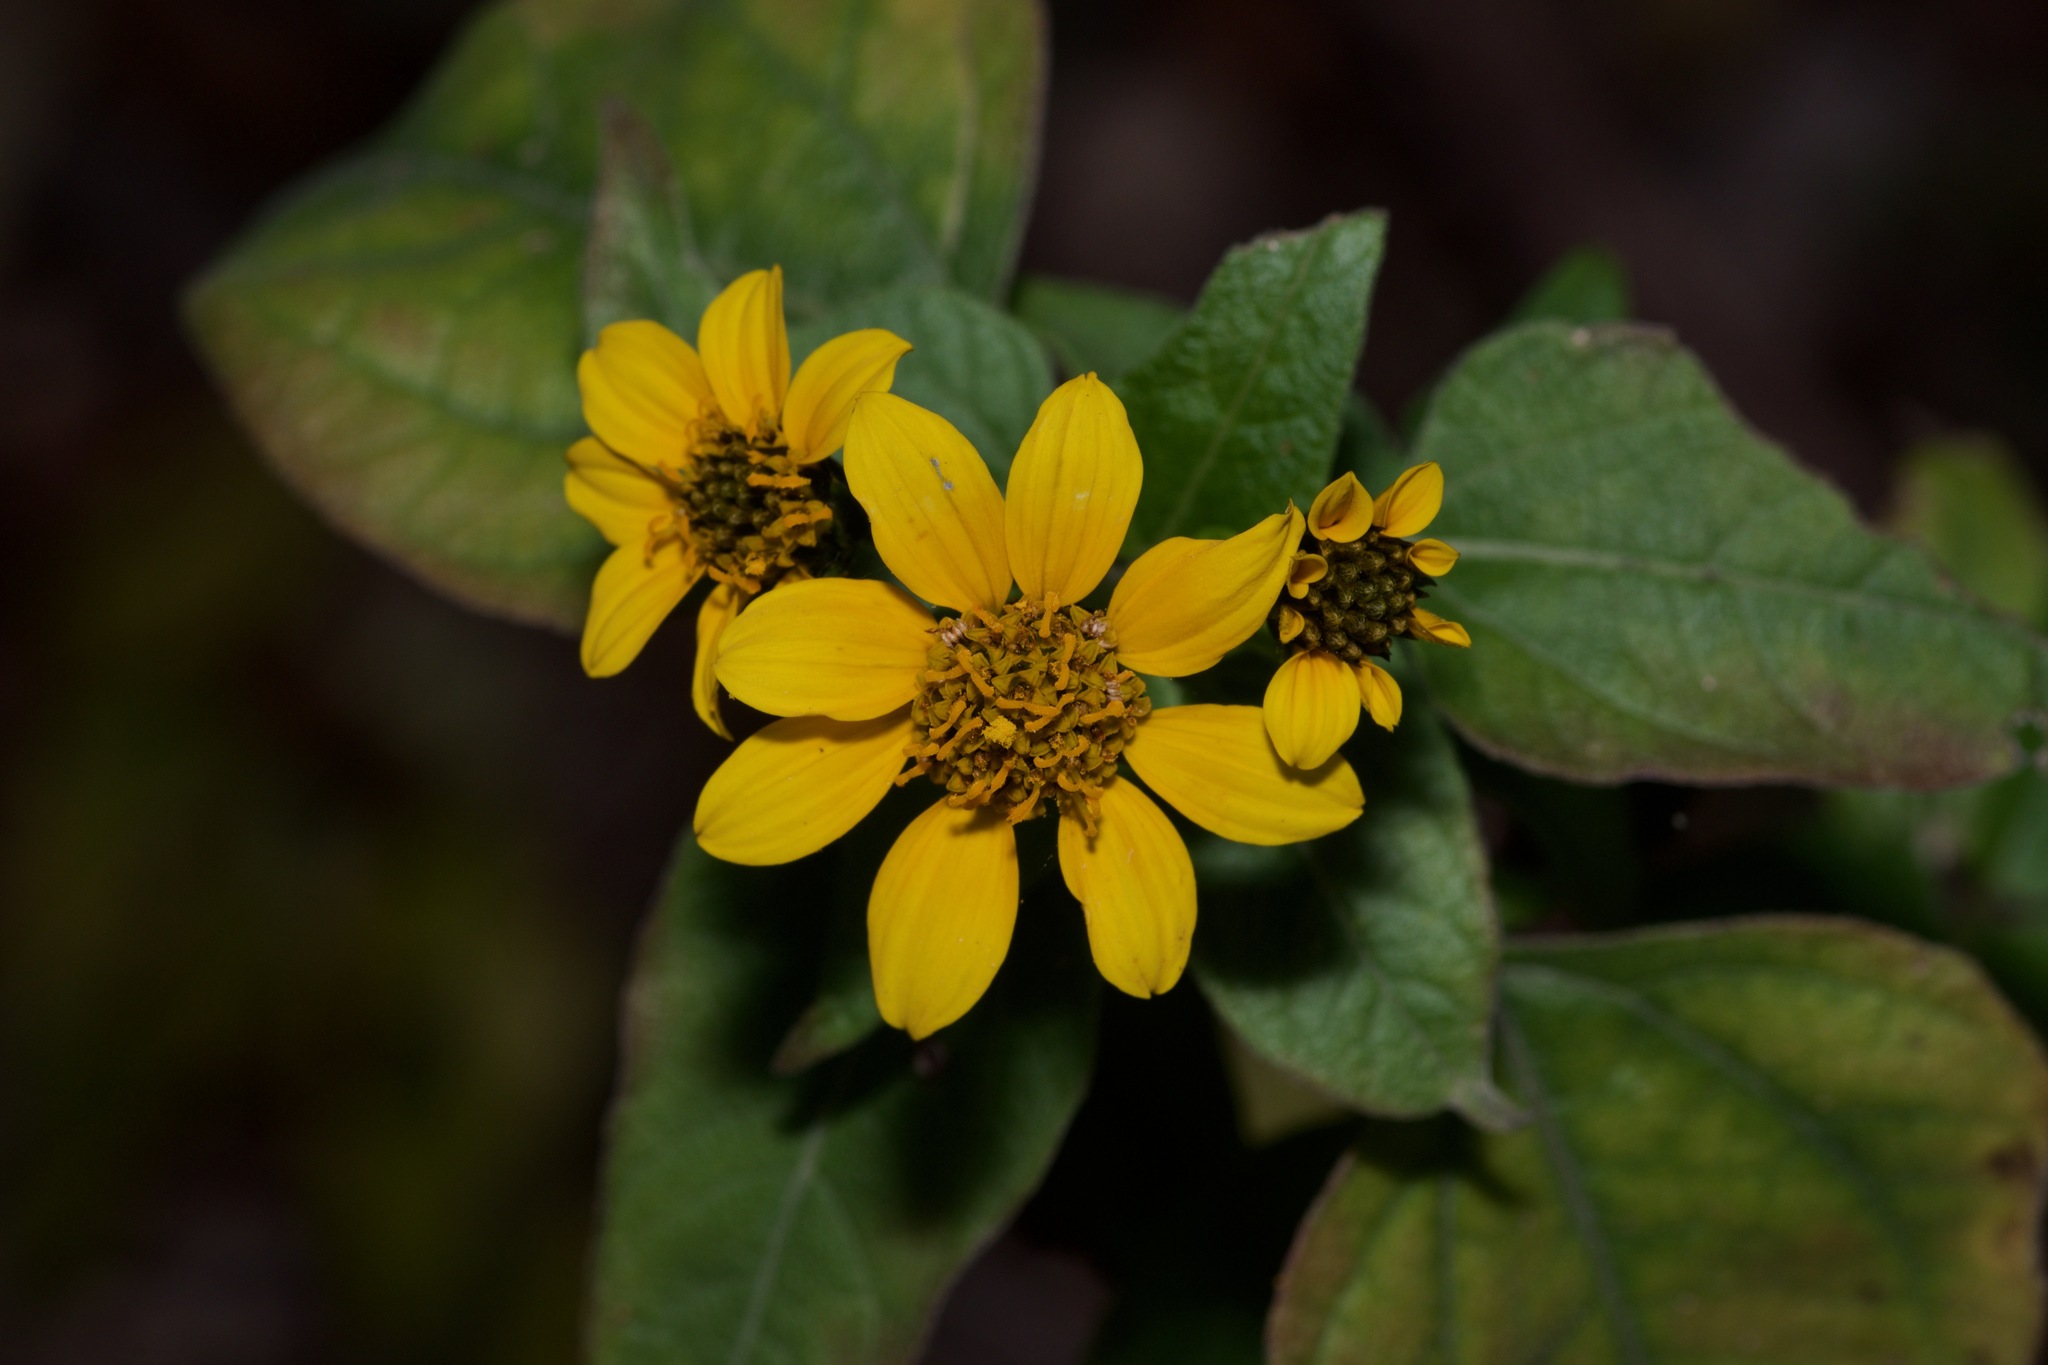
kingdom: Plantae
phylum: Tracheophyta
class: Magnoliopsida
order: Asterales
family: Asteraceae
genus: Viguiera
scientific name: Viguiera dentata
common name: Toothleaf
